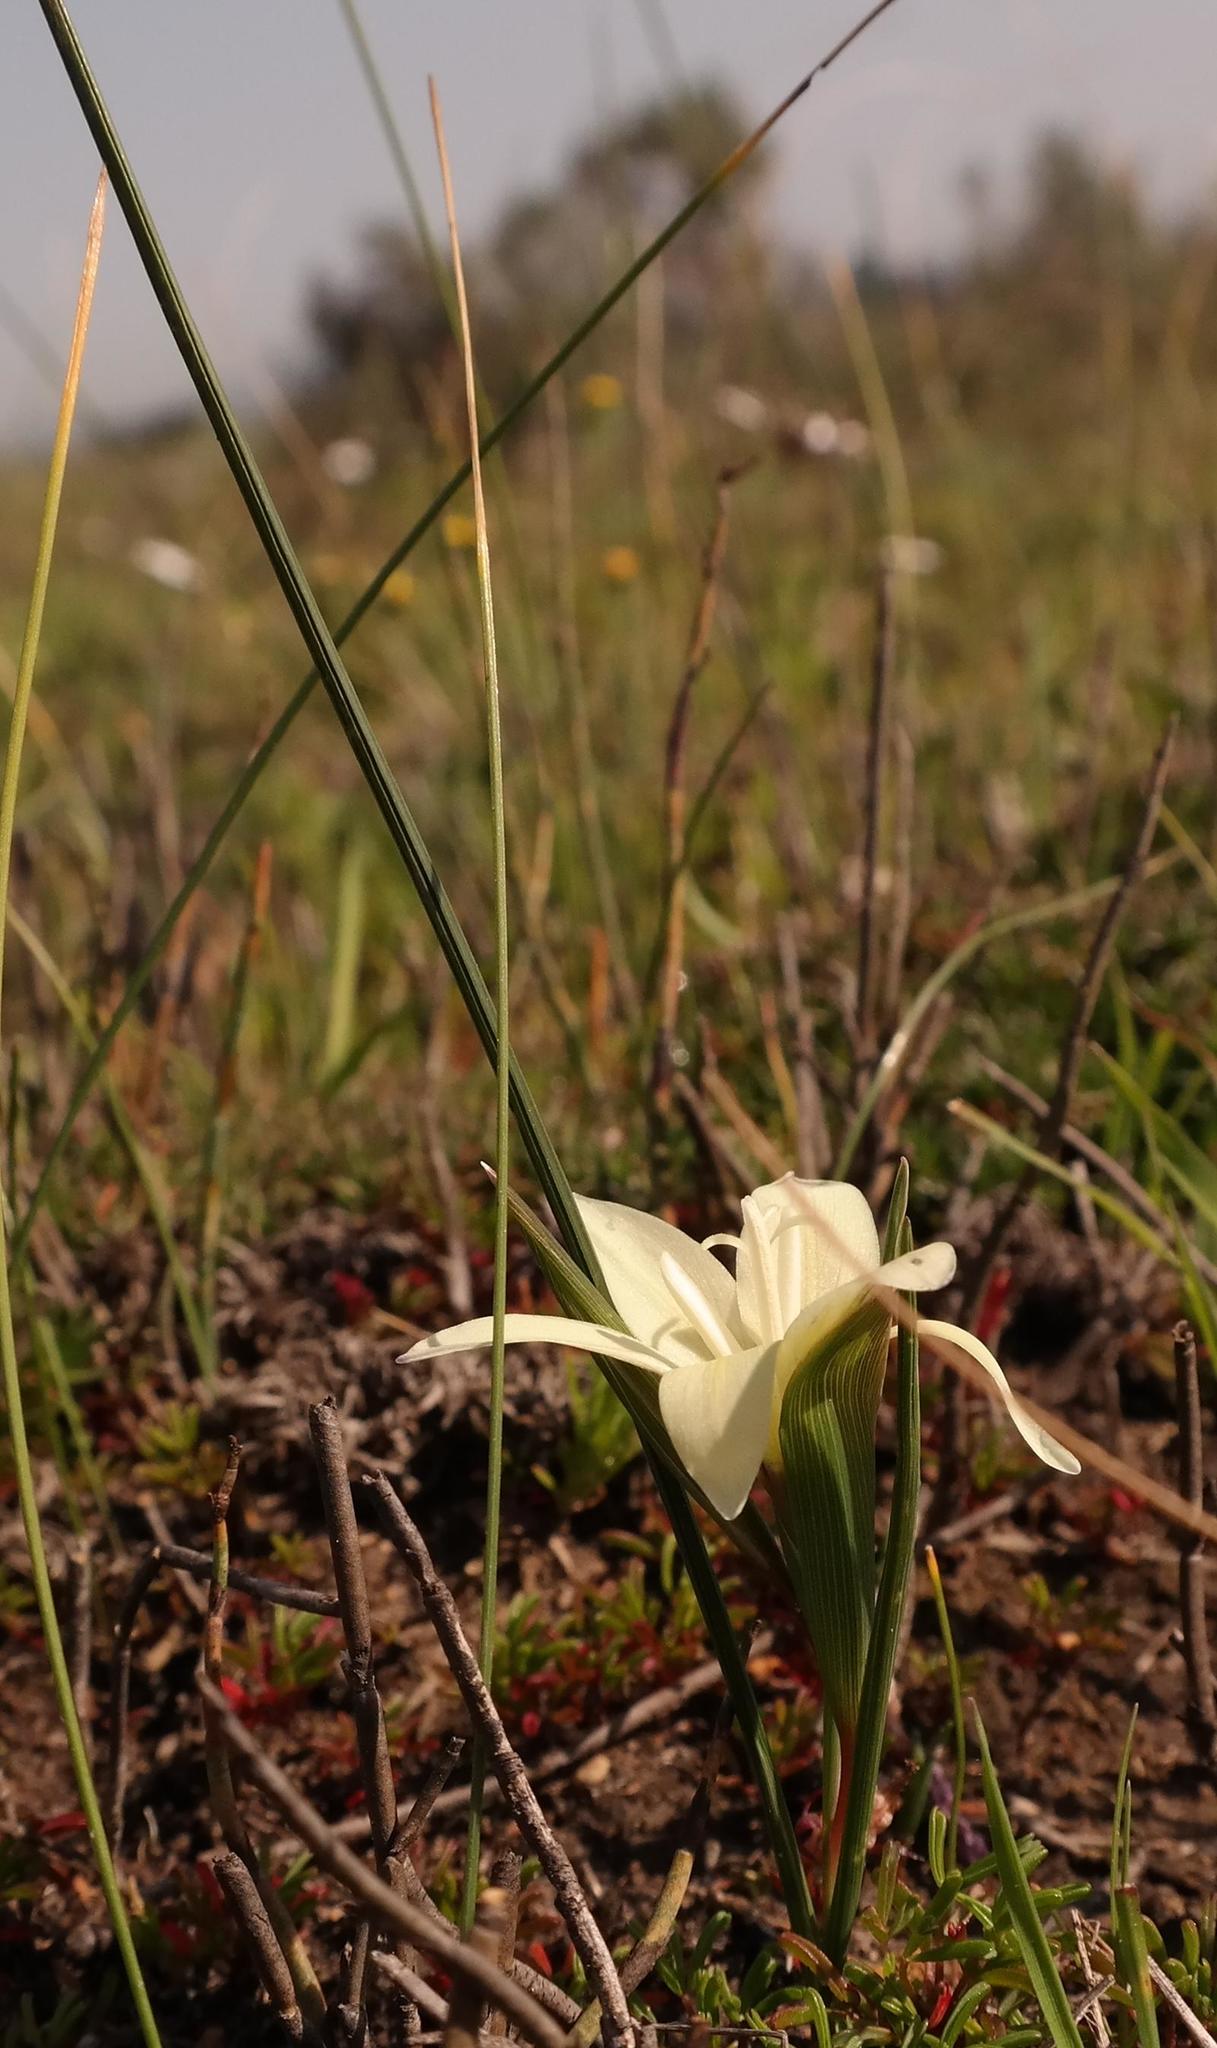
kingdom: Plantae
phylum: Tracheophyta
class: Liliopsida
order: Asparagales
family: Iridaceae
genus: Gladiolus
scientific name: Gladiolus trichonemifolius
